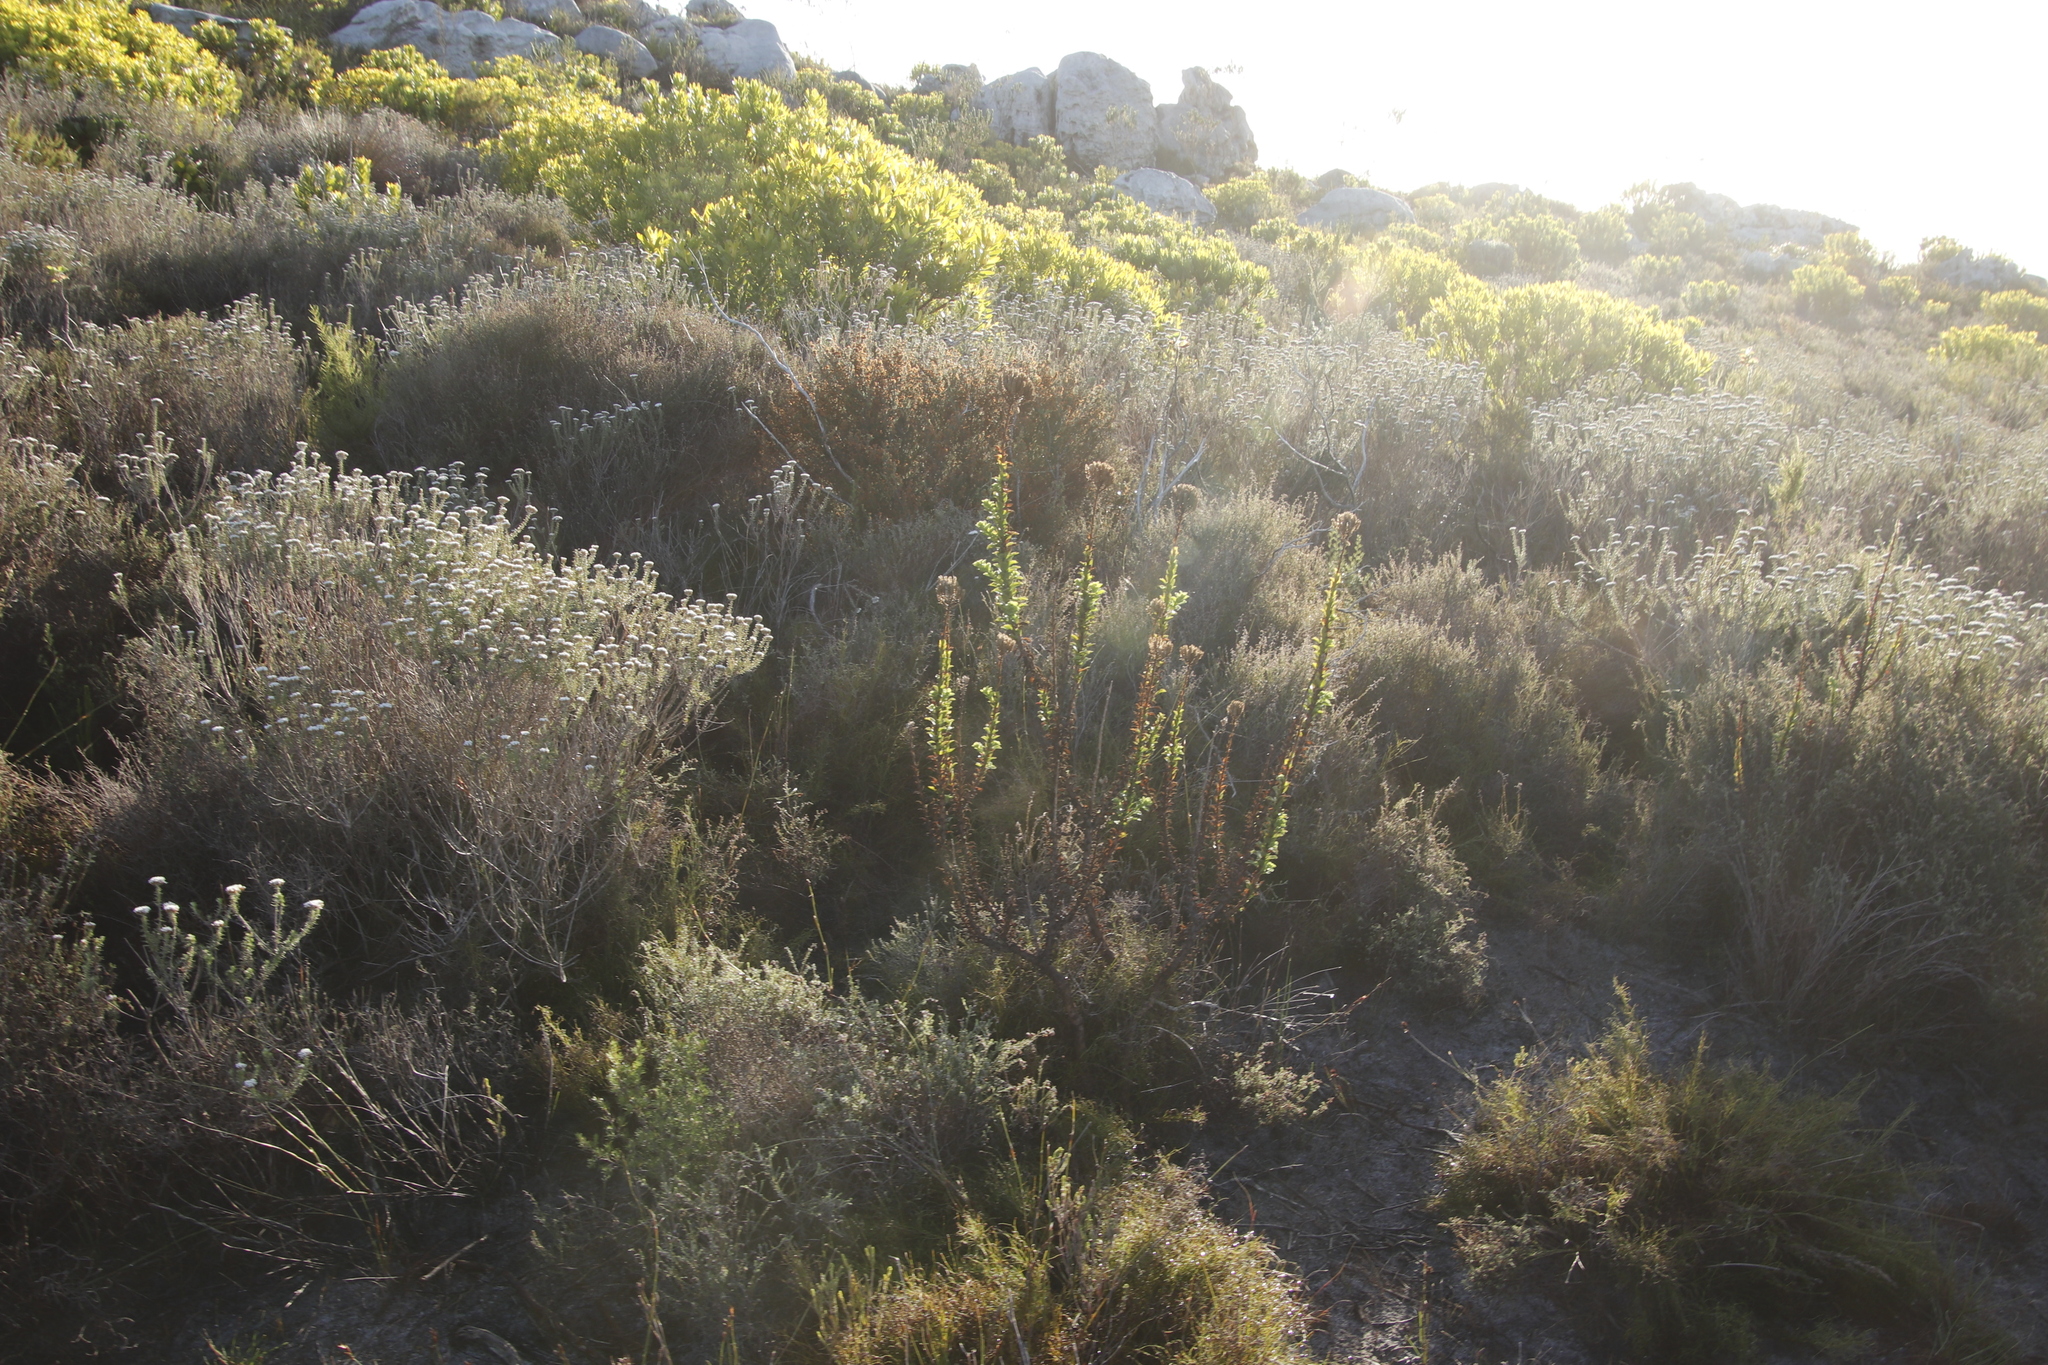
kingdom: Plantae
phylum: Tracheophyta
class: Magnoliopsida
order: Lamiales
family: Scrophulariaceae
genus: Pseudoselago
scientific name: Pseudoselago serrata
